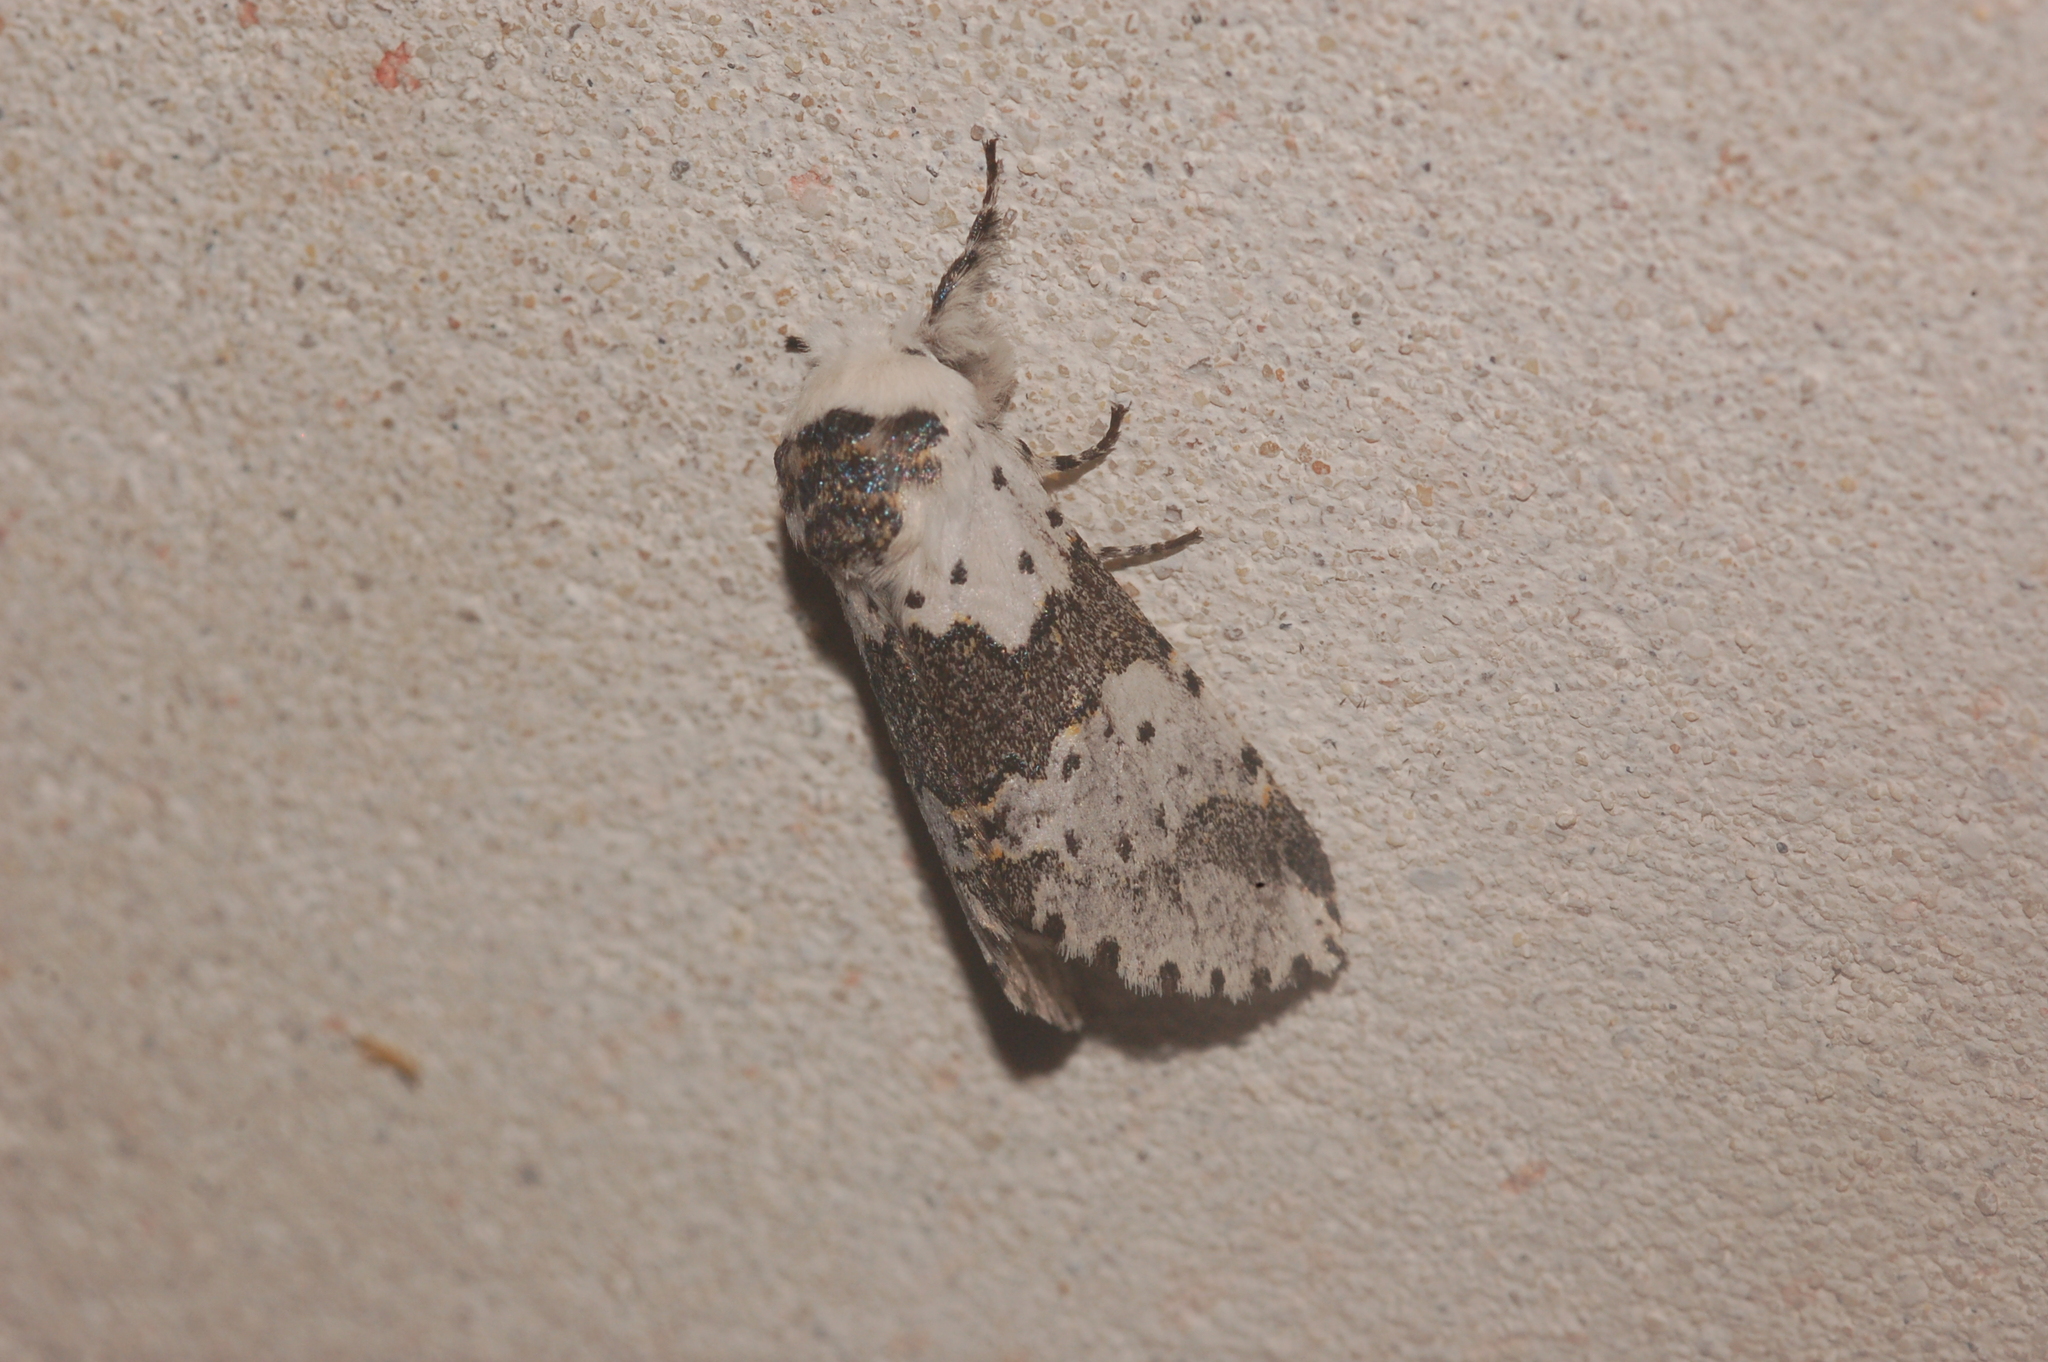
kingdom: Animalia
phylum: Arthropoda
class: Insecta
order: Lepidoptera
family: Notodontidae
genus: Furcula
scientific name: Furcula borealis
